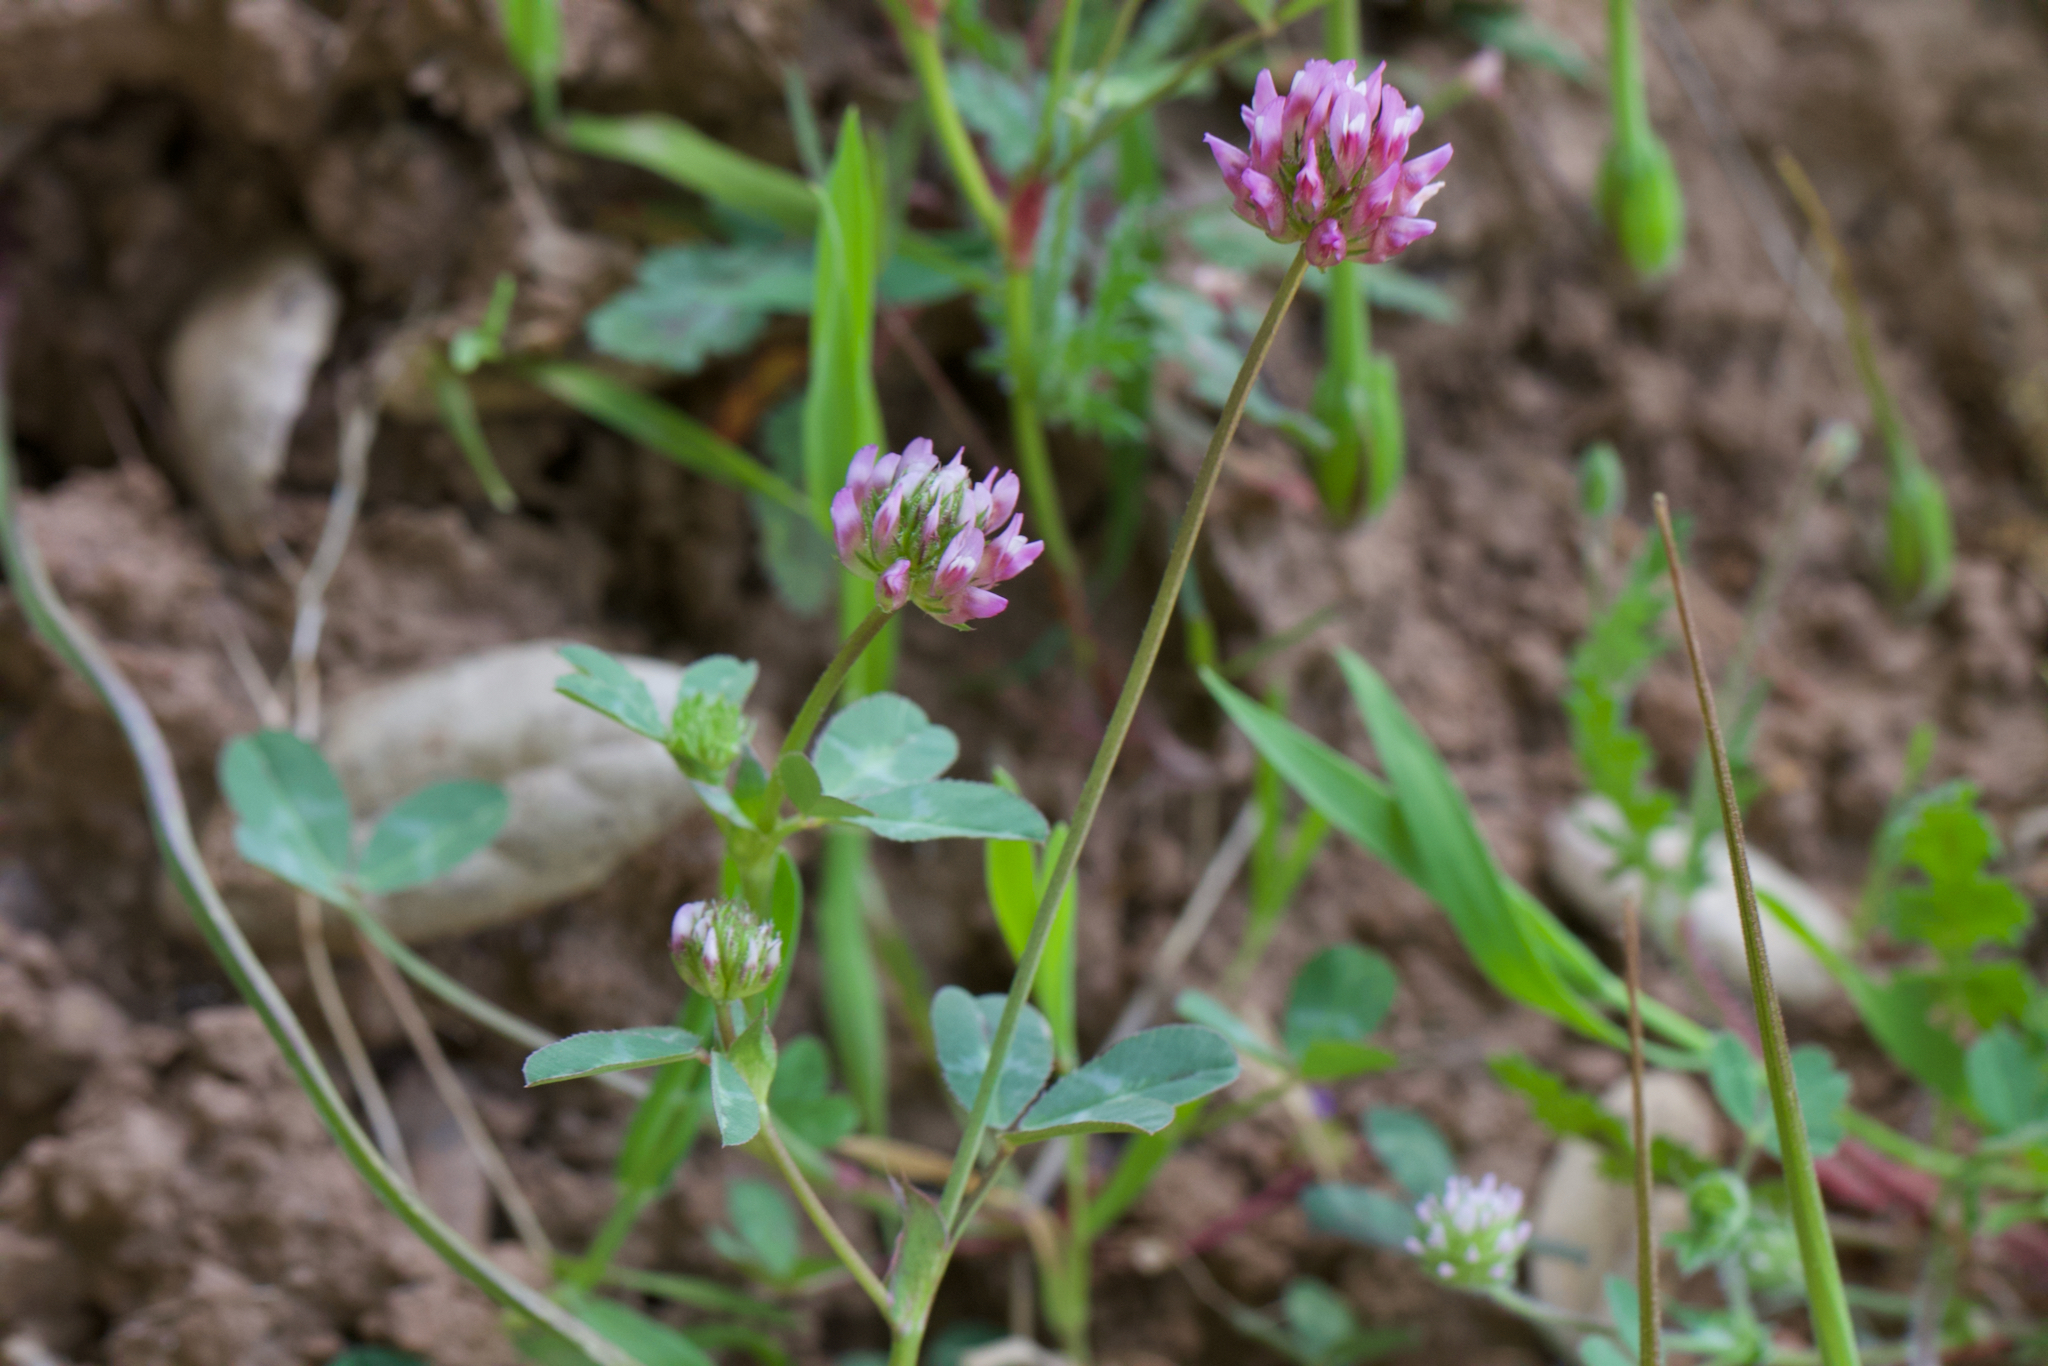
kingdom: Plantae
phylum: Tracheophyta
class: Magnoliopsida
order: Fabales
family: Fabaceae
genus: Trifolium
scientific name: Trifolium ciliolatum
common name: Foothill clover
